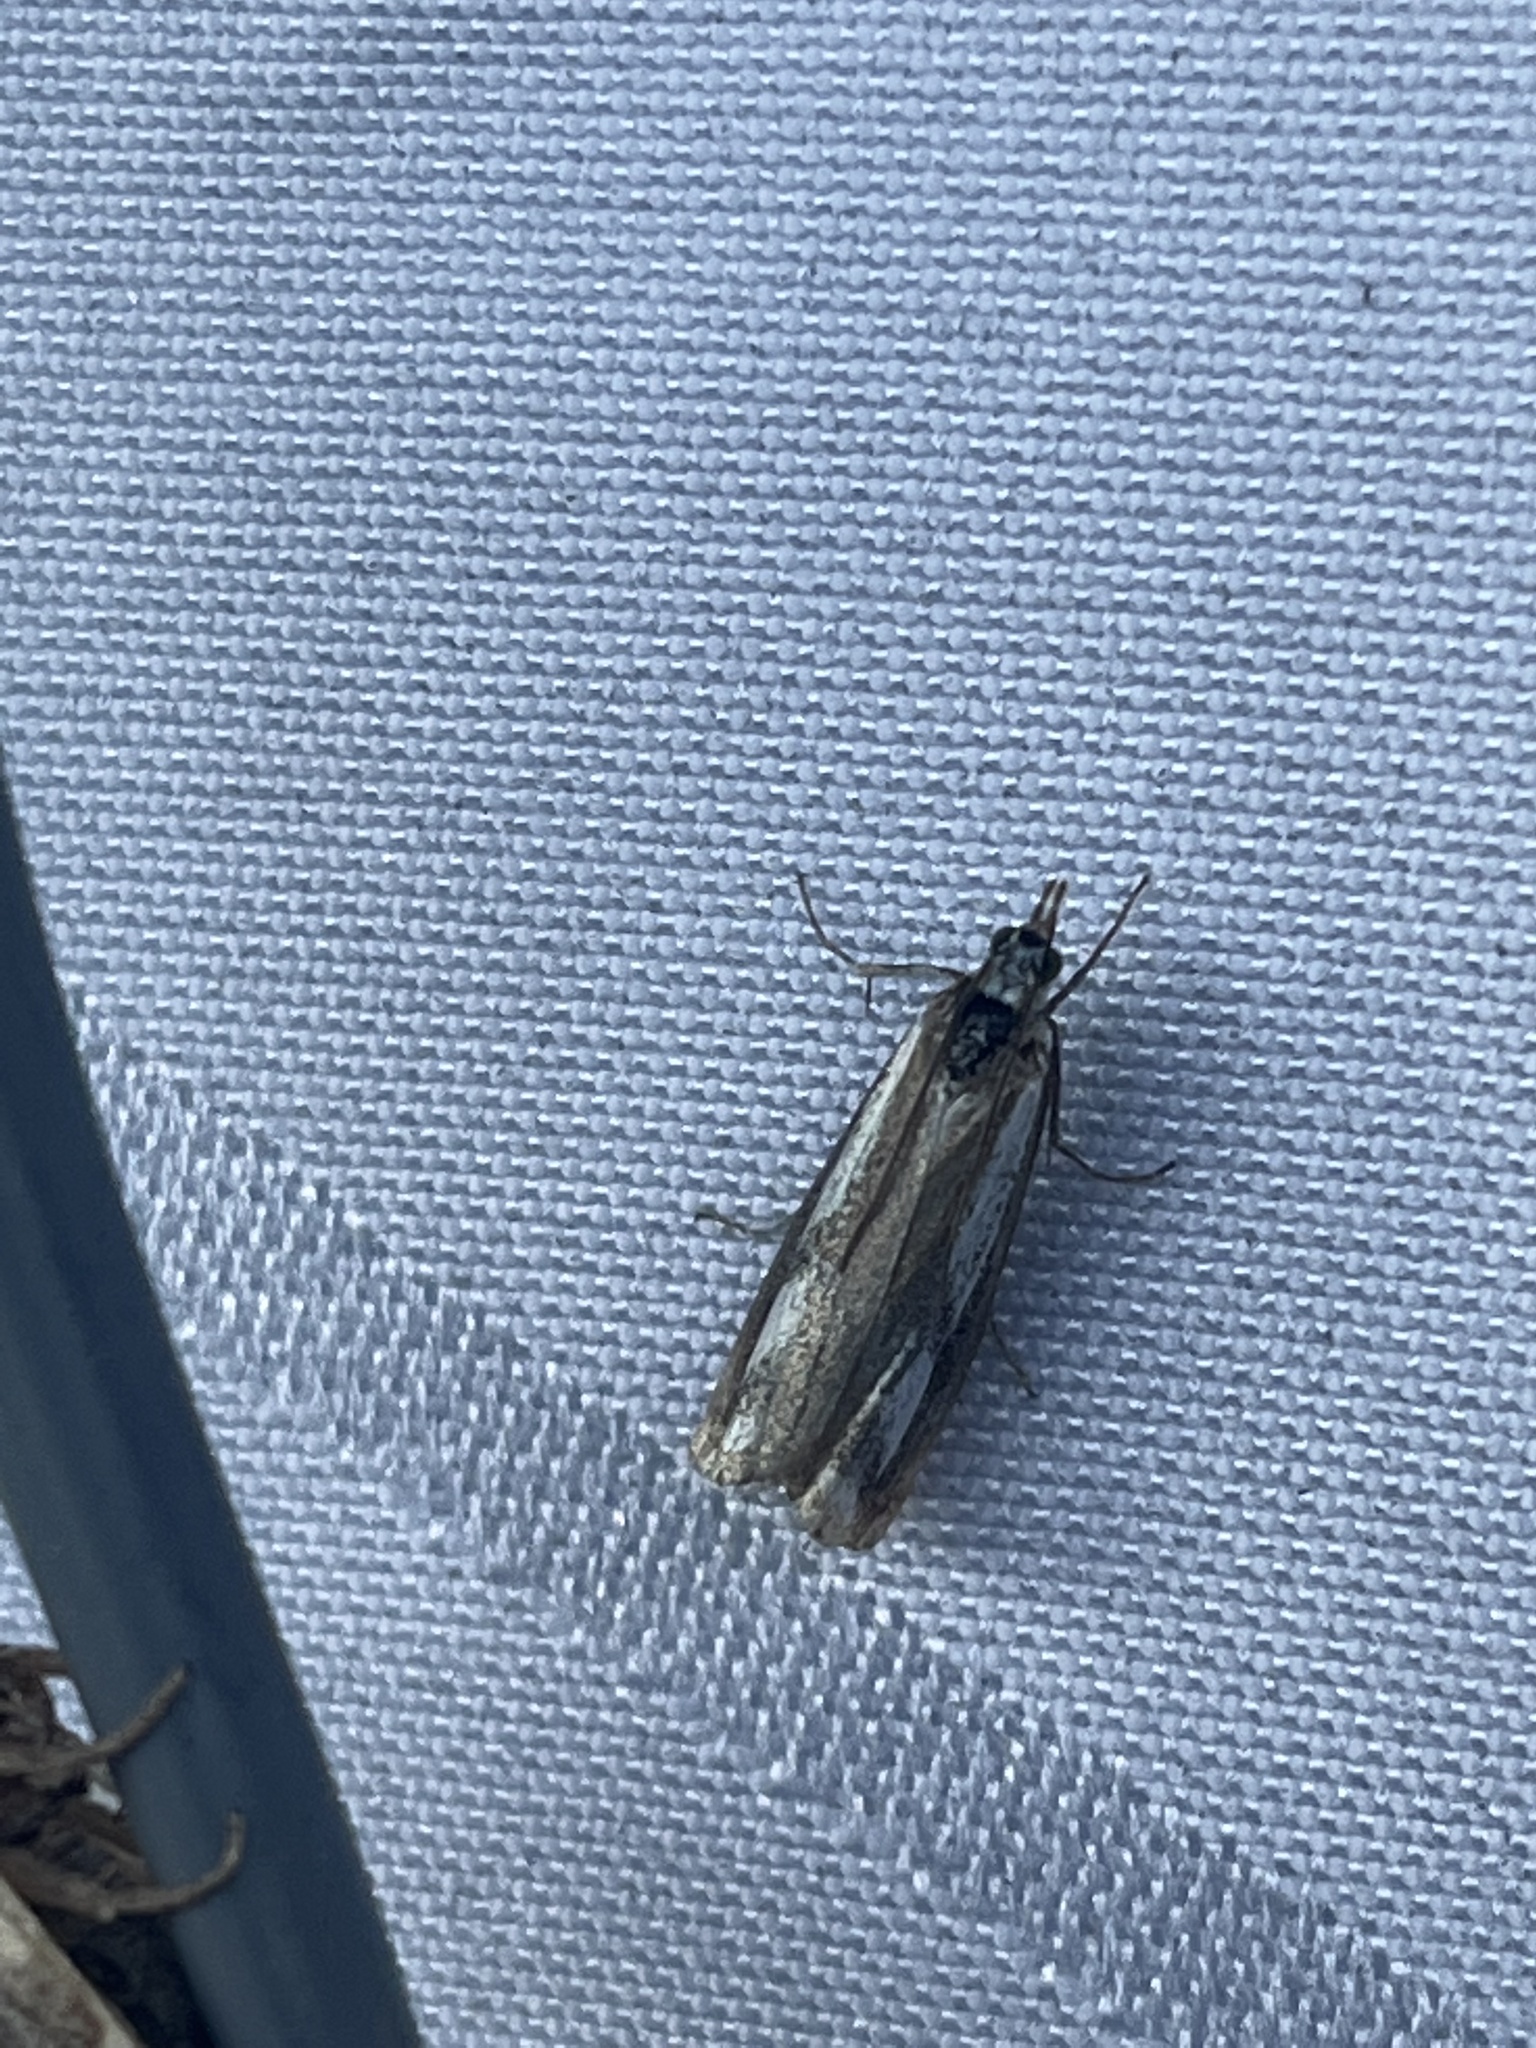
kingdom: Animalia
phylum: Arthropoda
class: Insecta
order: Lepidoptera
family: Crambidae
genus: Catoptria
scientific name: Catoptria latiradiellus
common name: Two-banded catoptria moth
